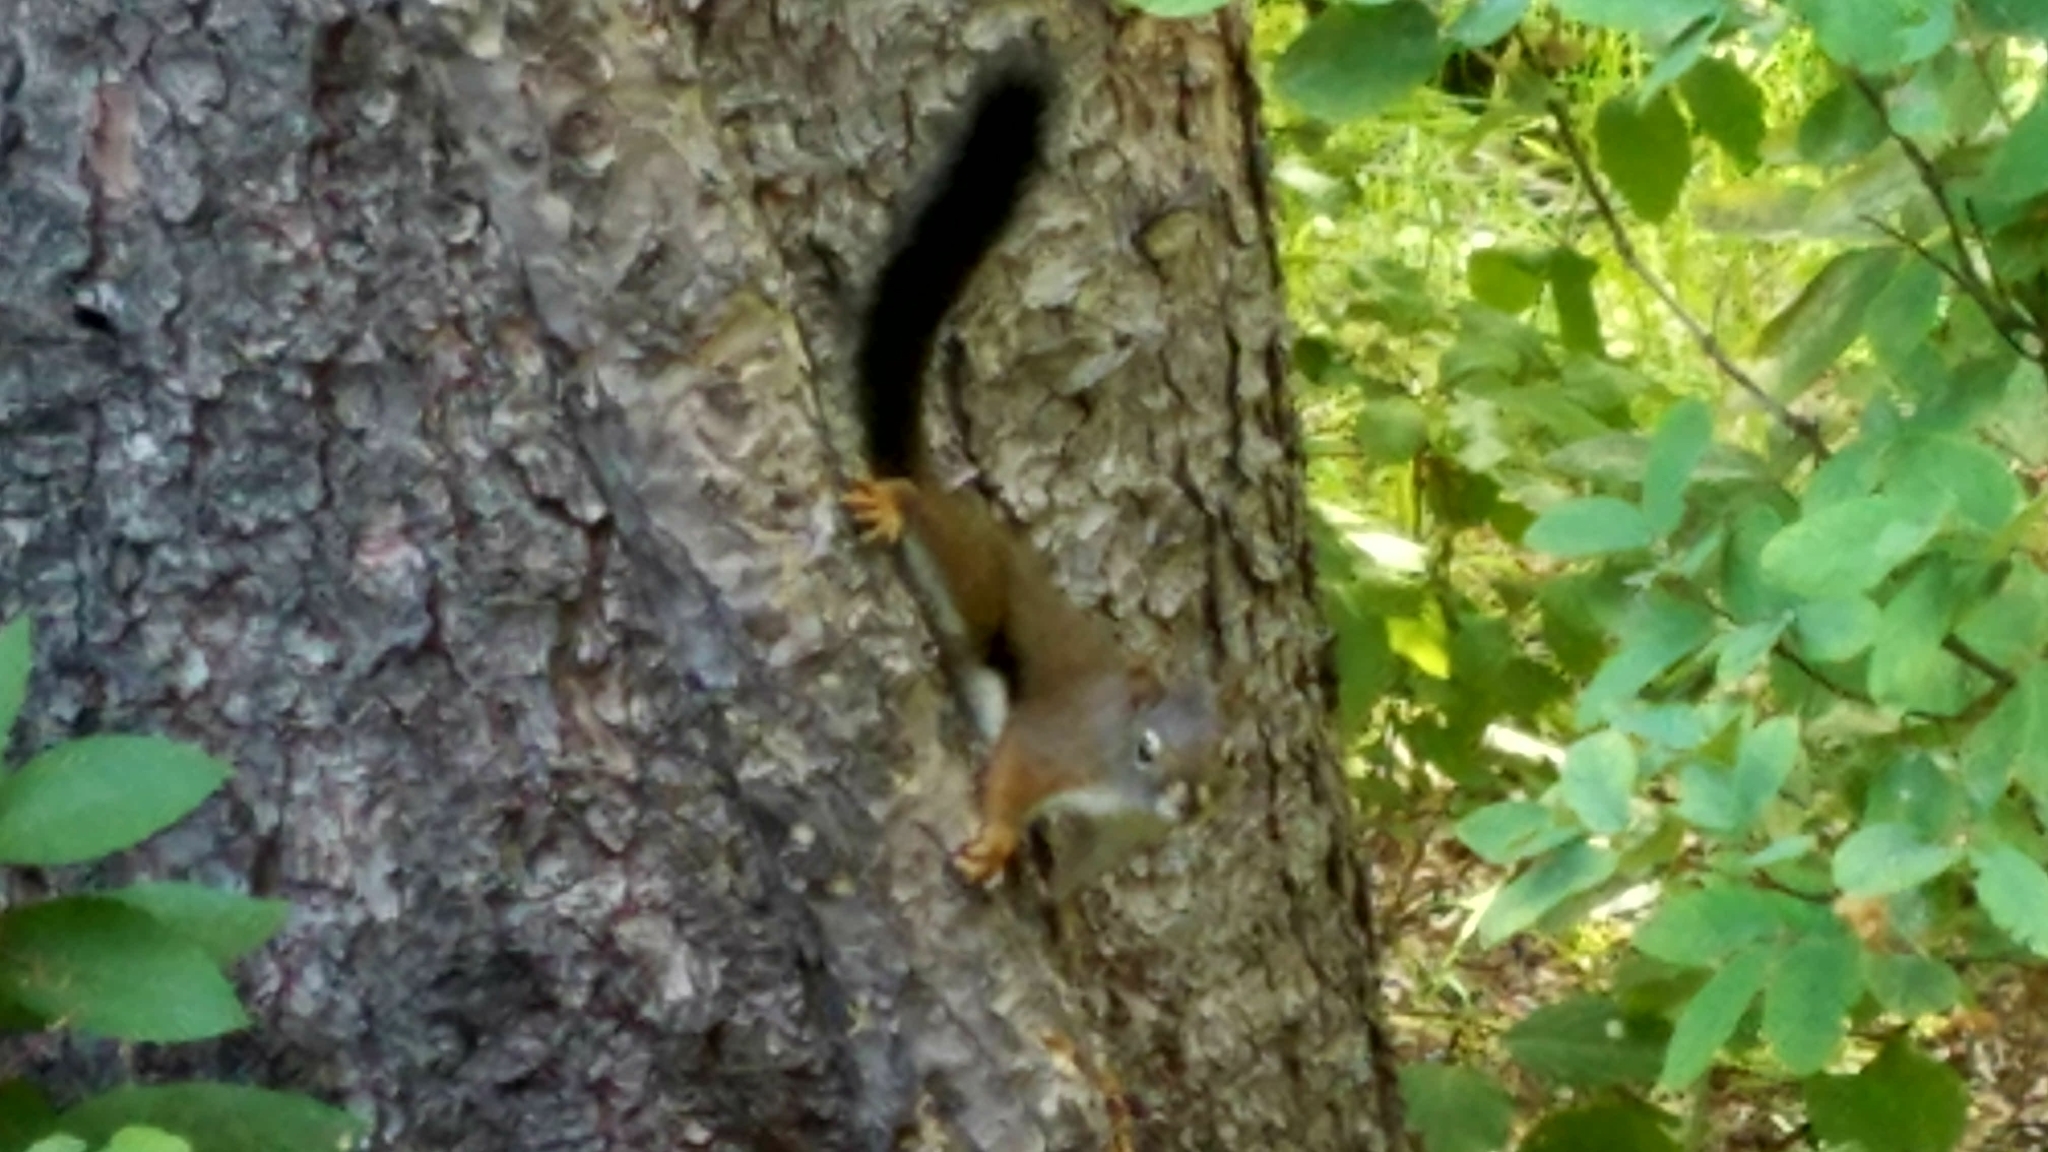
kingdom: Animalia
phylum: Chordata
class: Mammalia
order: Rodentia
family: Sciuridae
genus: Tamiasciurus
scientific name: Tamiasciurus hudsonicus
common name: Red squirrel
